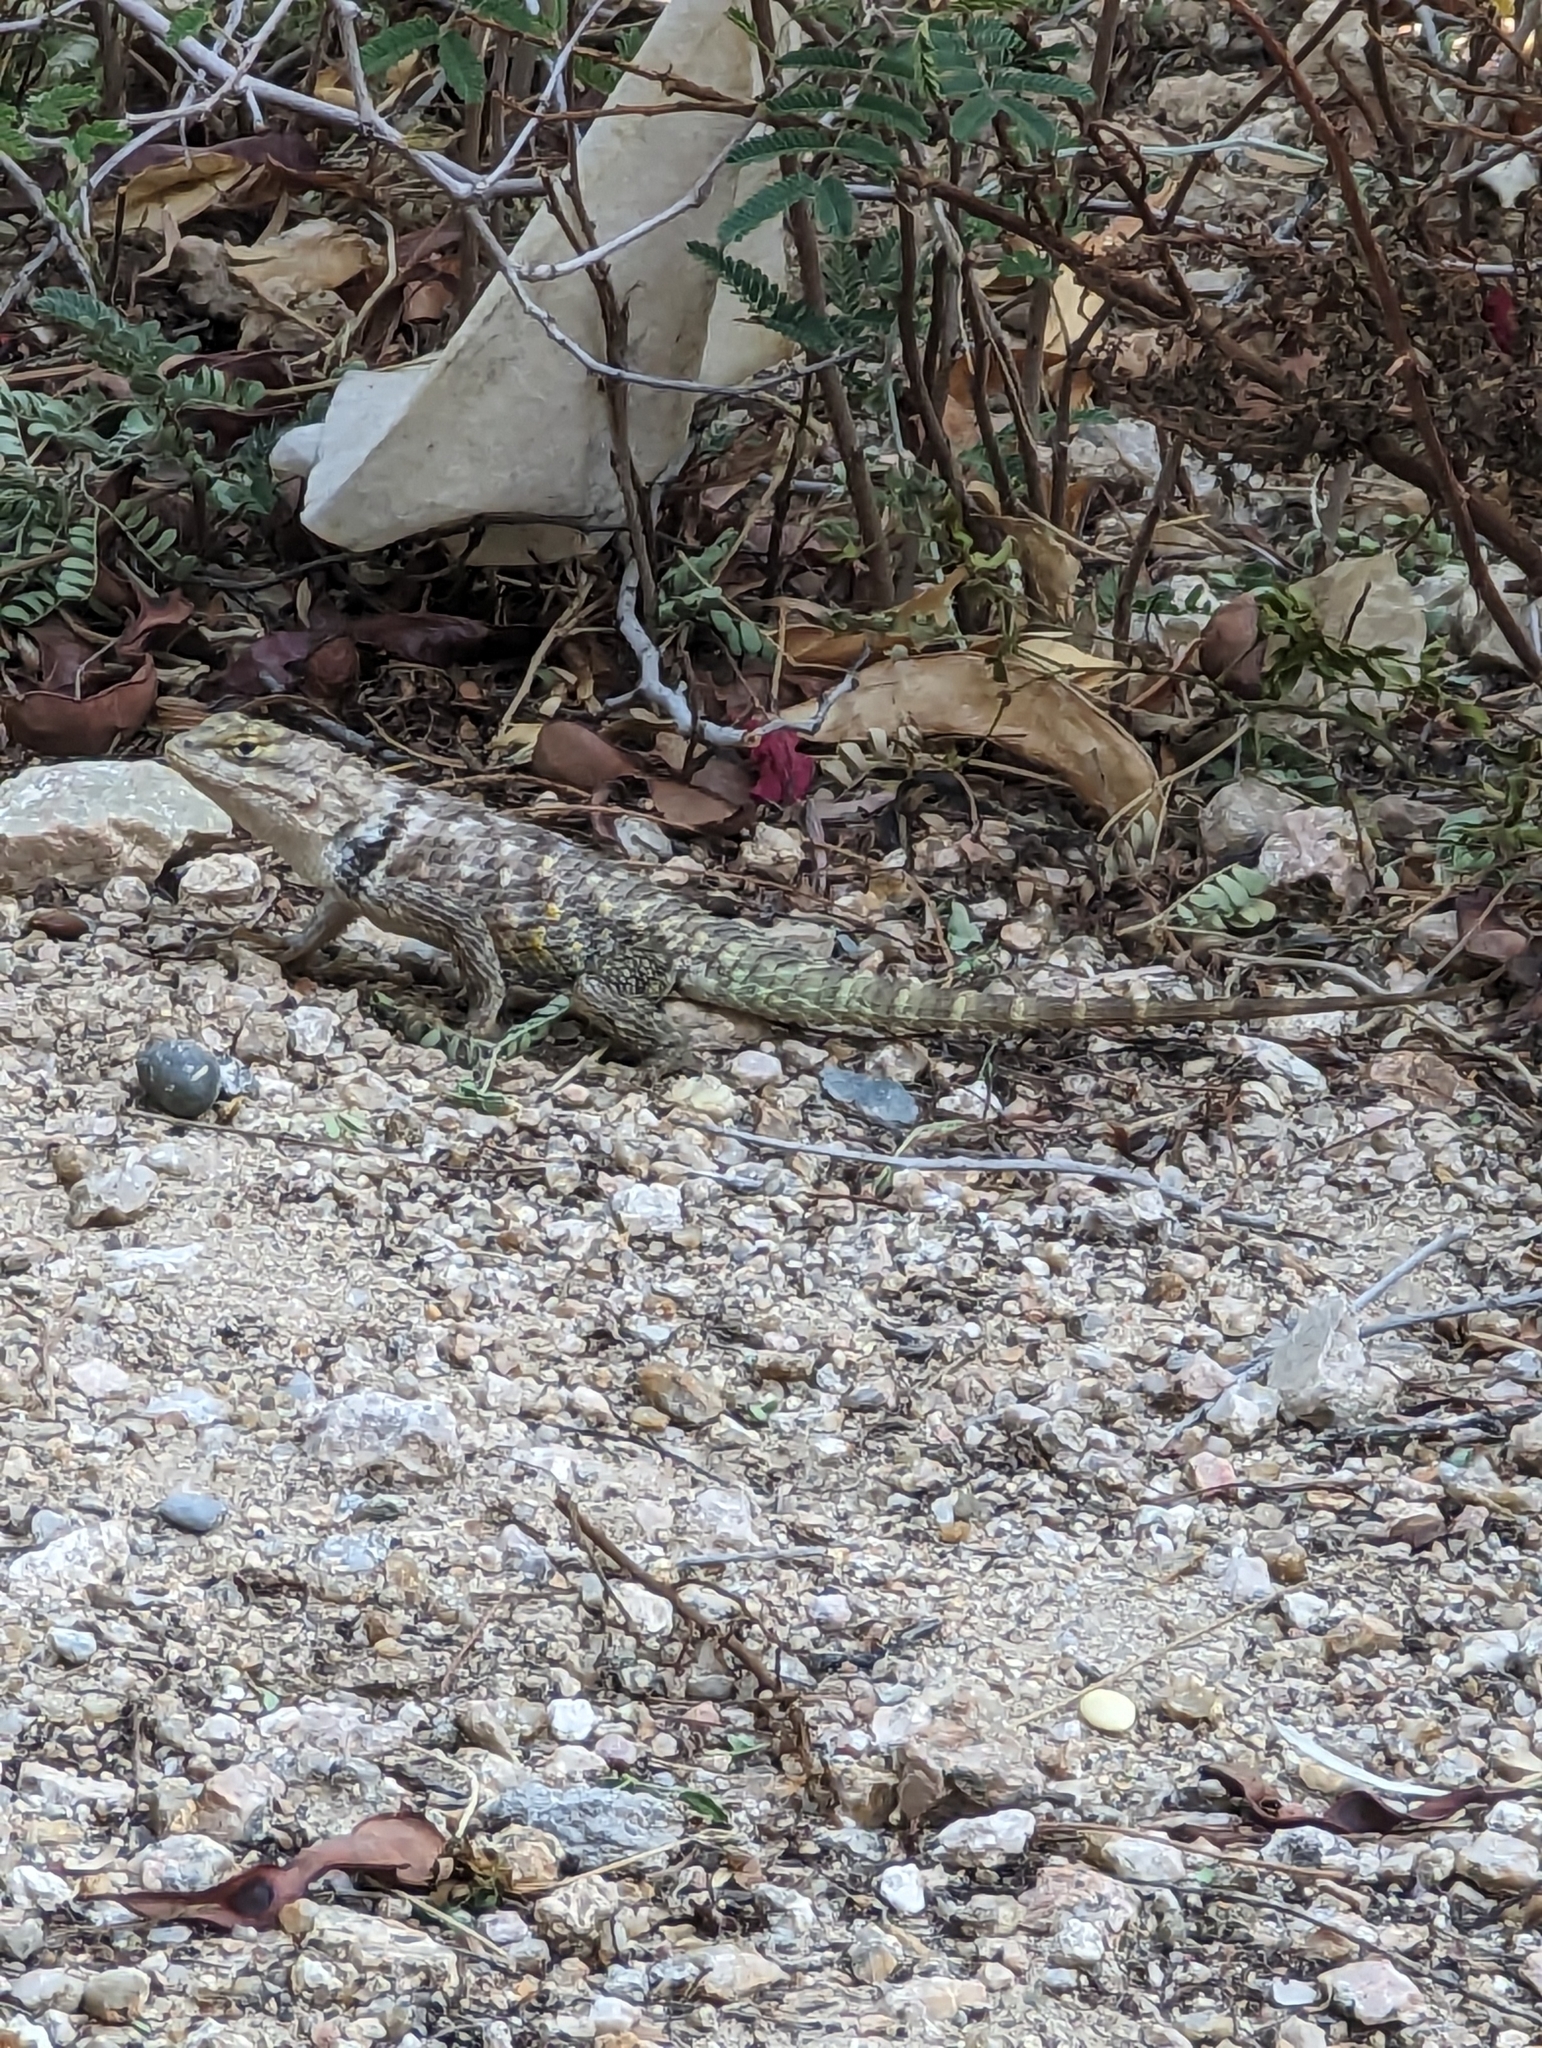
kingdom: Animalia
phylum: Chordata
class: Squamata
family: Phrynosomatidae
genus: Sceloporus
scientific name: Sceloporus magister
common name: Desert spiny lizard
